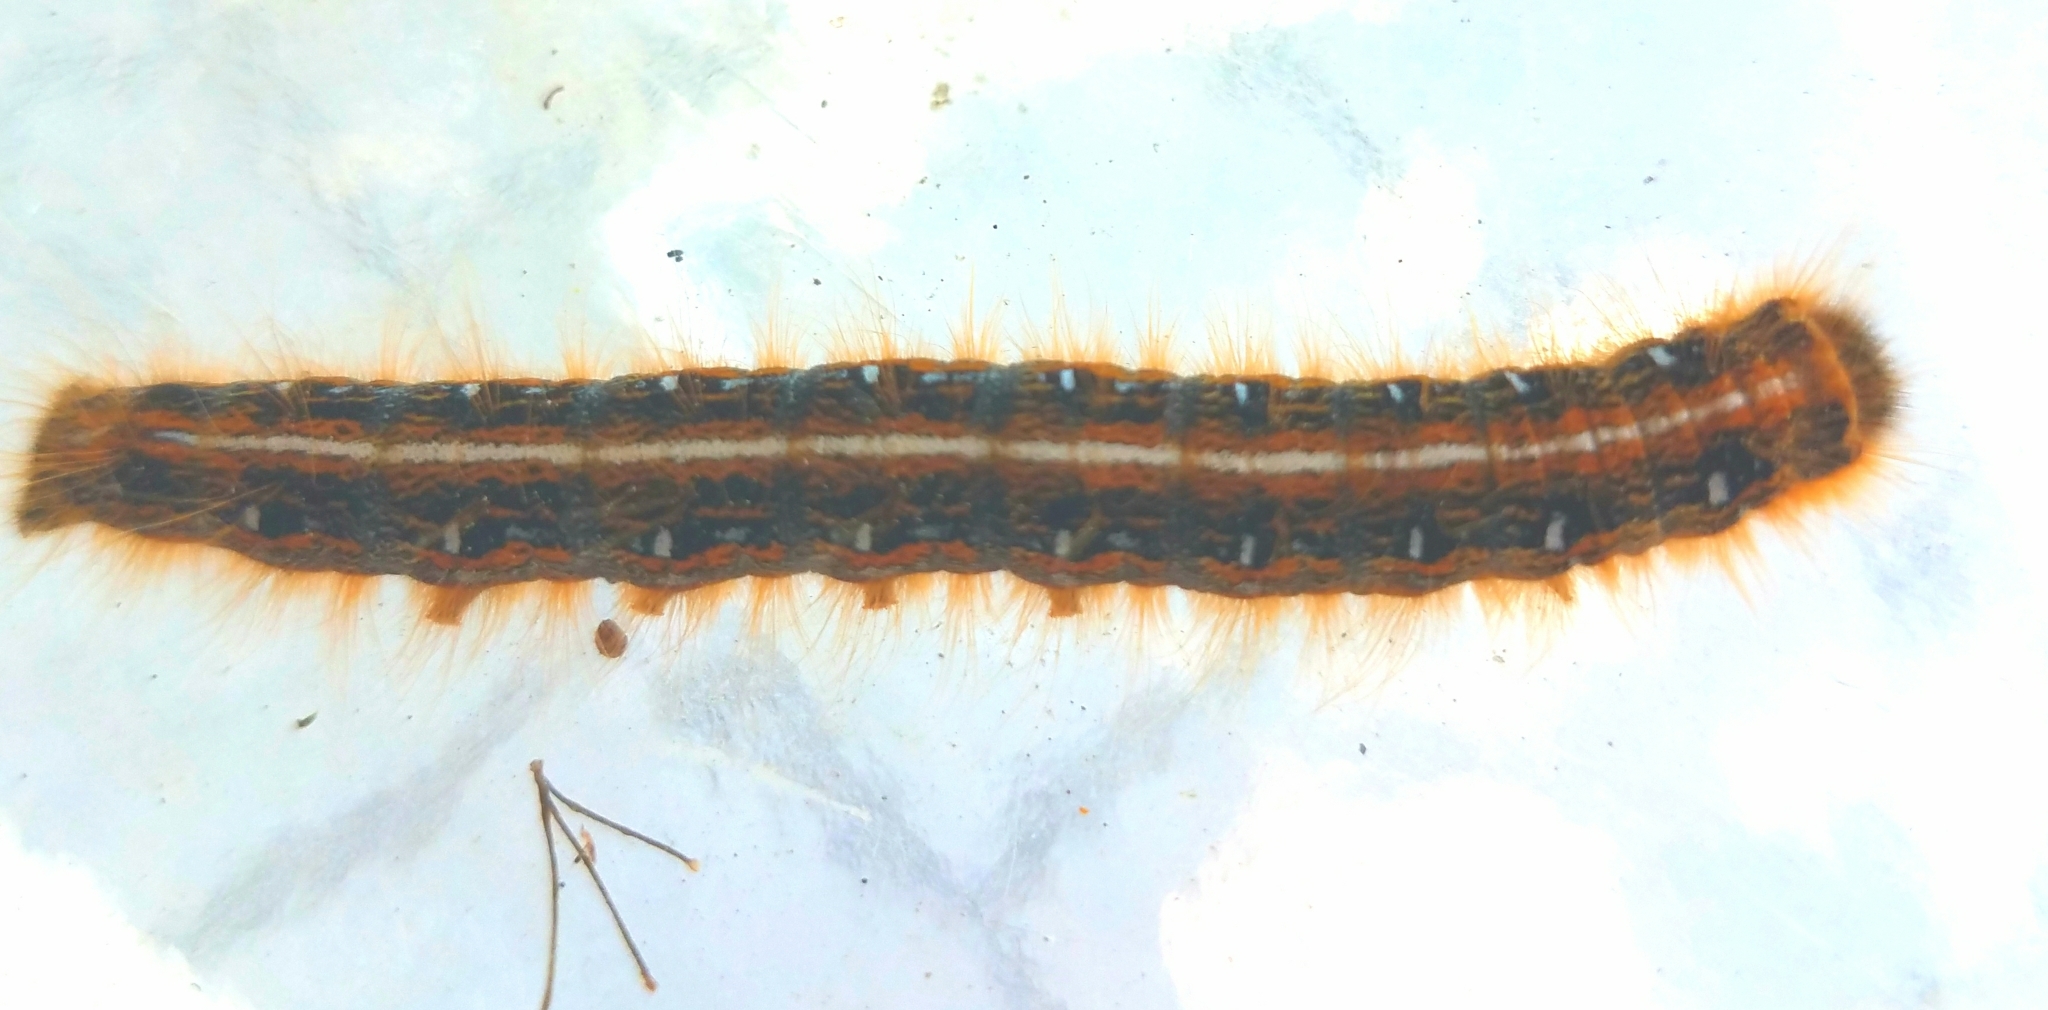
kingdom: Animalia
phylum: Arthropoda
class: Insecta
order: Lepidoptera
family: Lasiocampidae
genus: Malacosoma
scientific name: Malacosoma americana
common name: Eastern tent caterpillar moth
